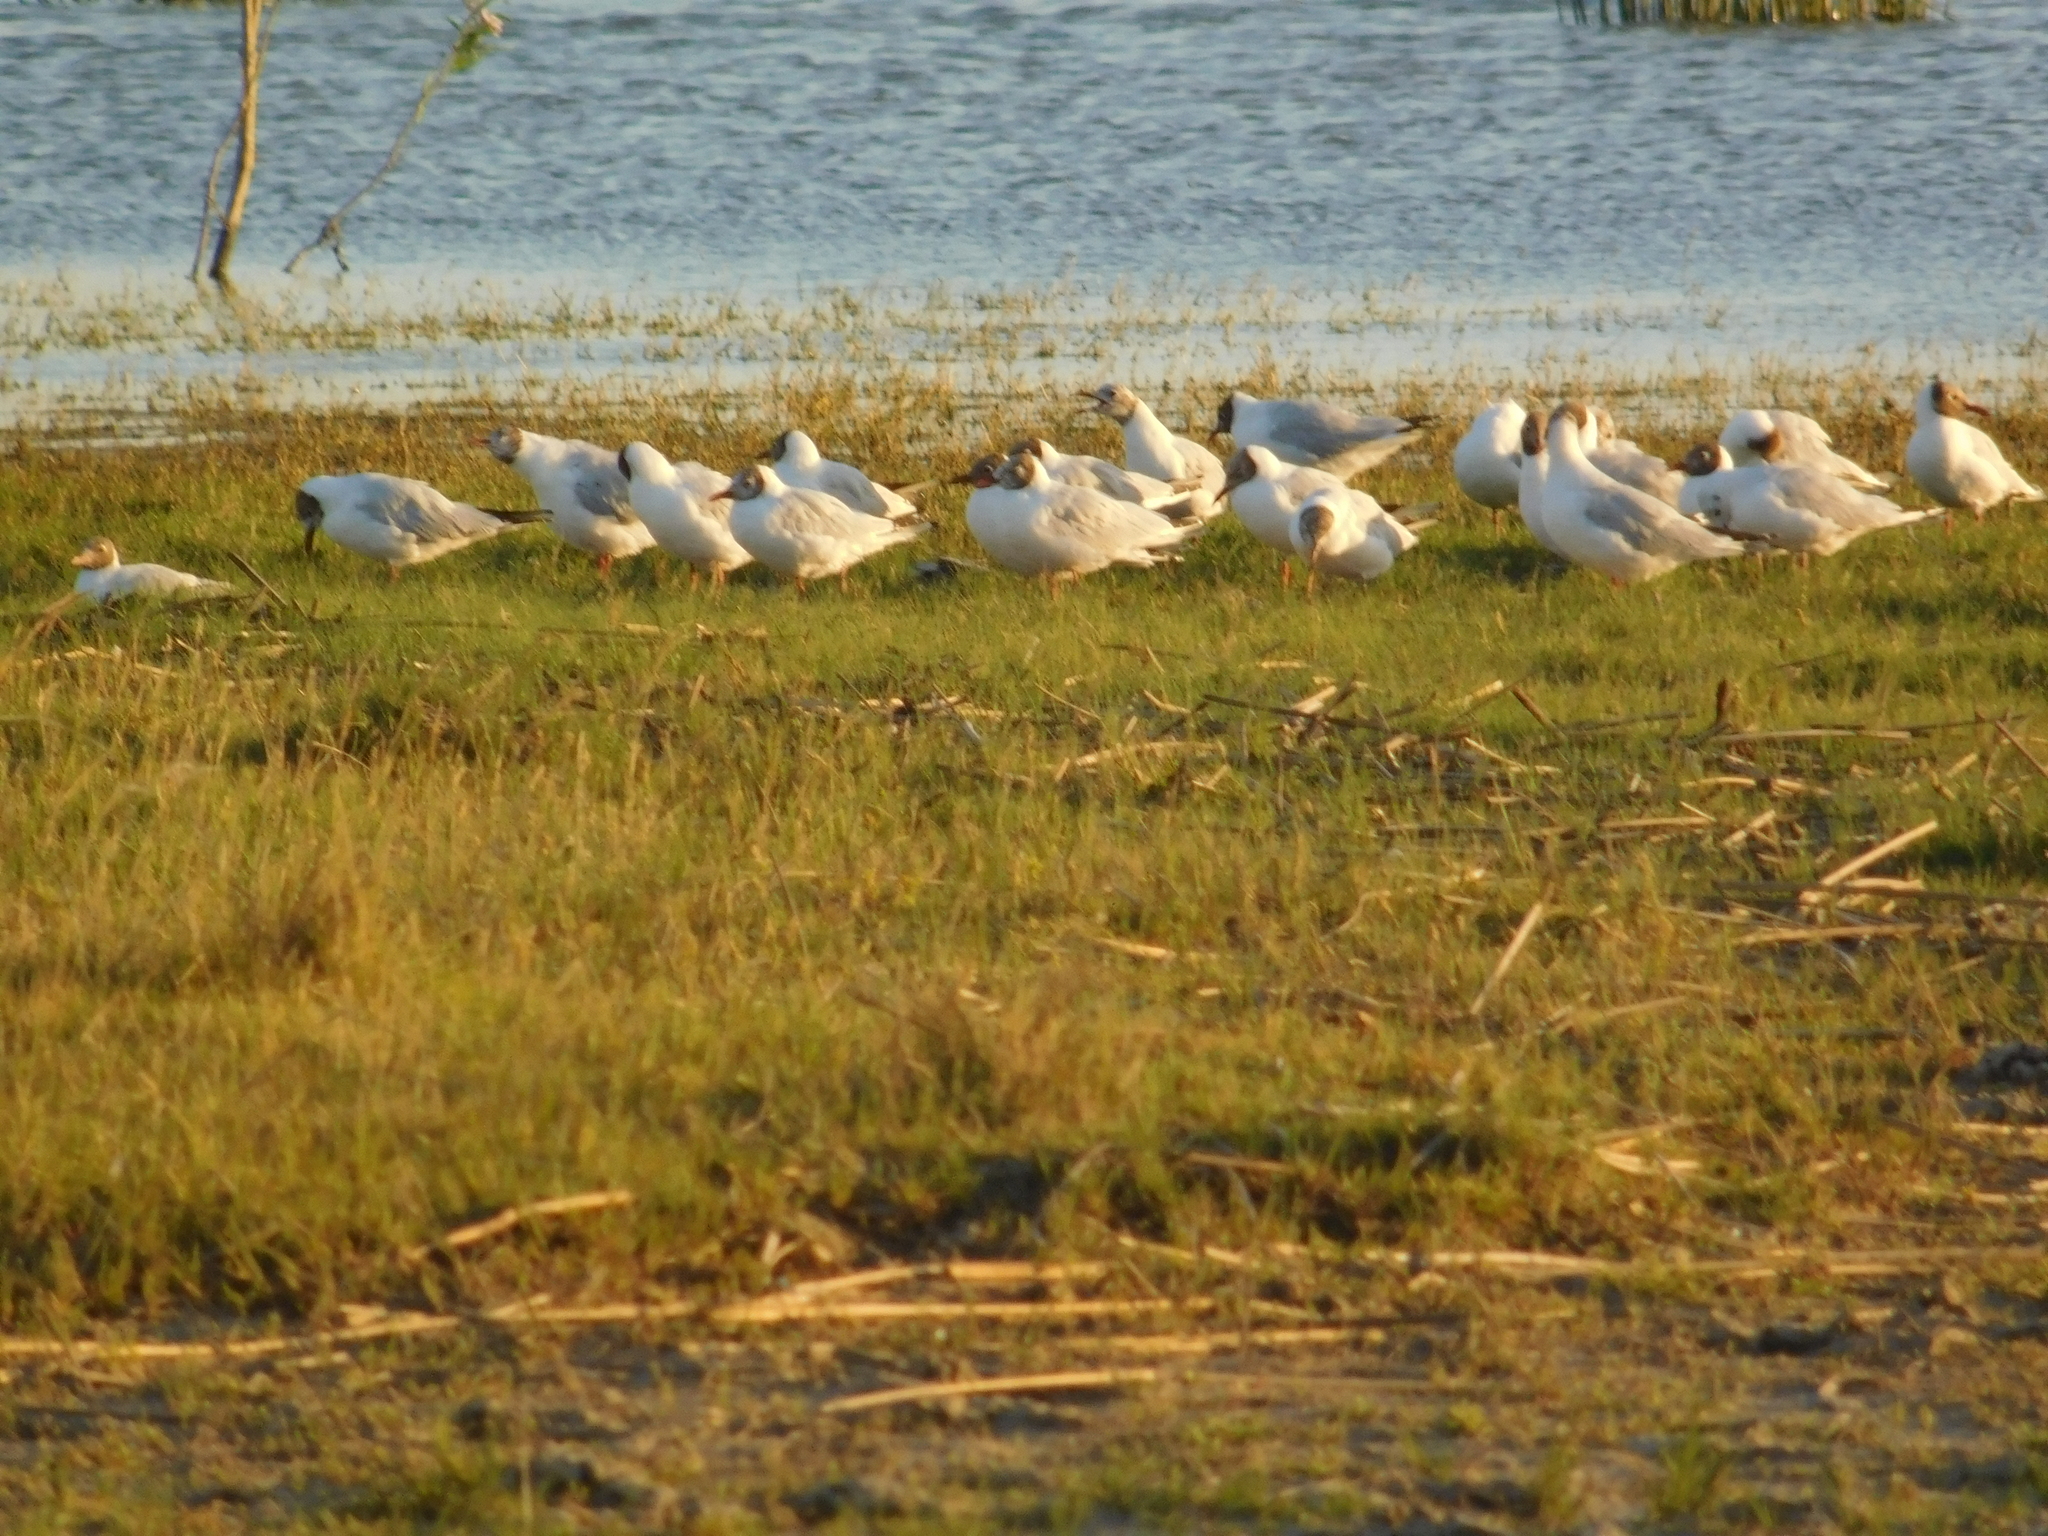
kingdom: Animalia
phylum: Chordata
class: Aves
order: Charadriiformes
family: Laridae
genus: Chroicocephalus
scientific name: Chroicocephalus maculipennis
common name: Brown-hooded gull
